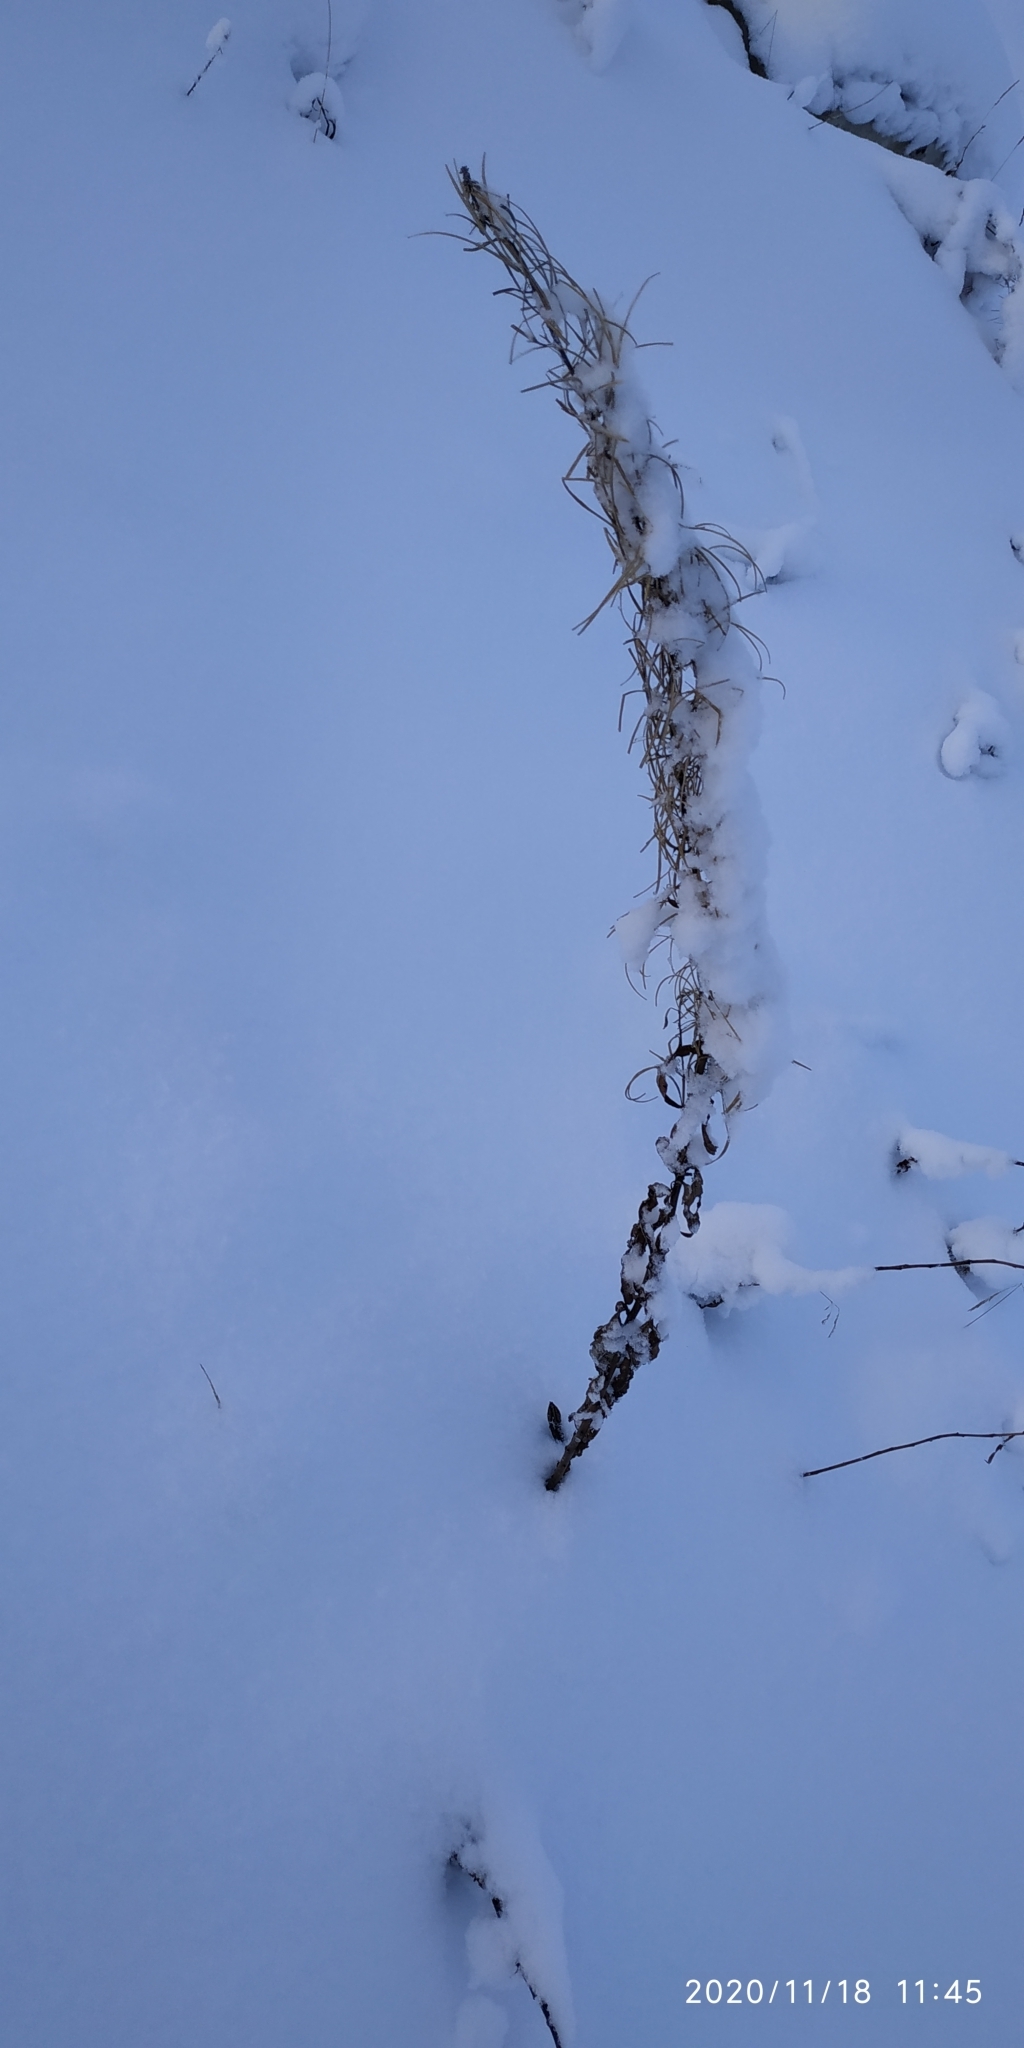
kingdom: Plantae
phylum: Tracheophyta
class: Magnoliopsida
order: Myrtales
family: Onagraceae
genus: Chamaenerion
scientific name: Chamaenerion angustifolium
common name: Fireweed
